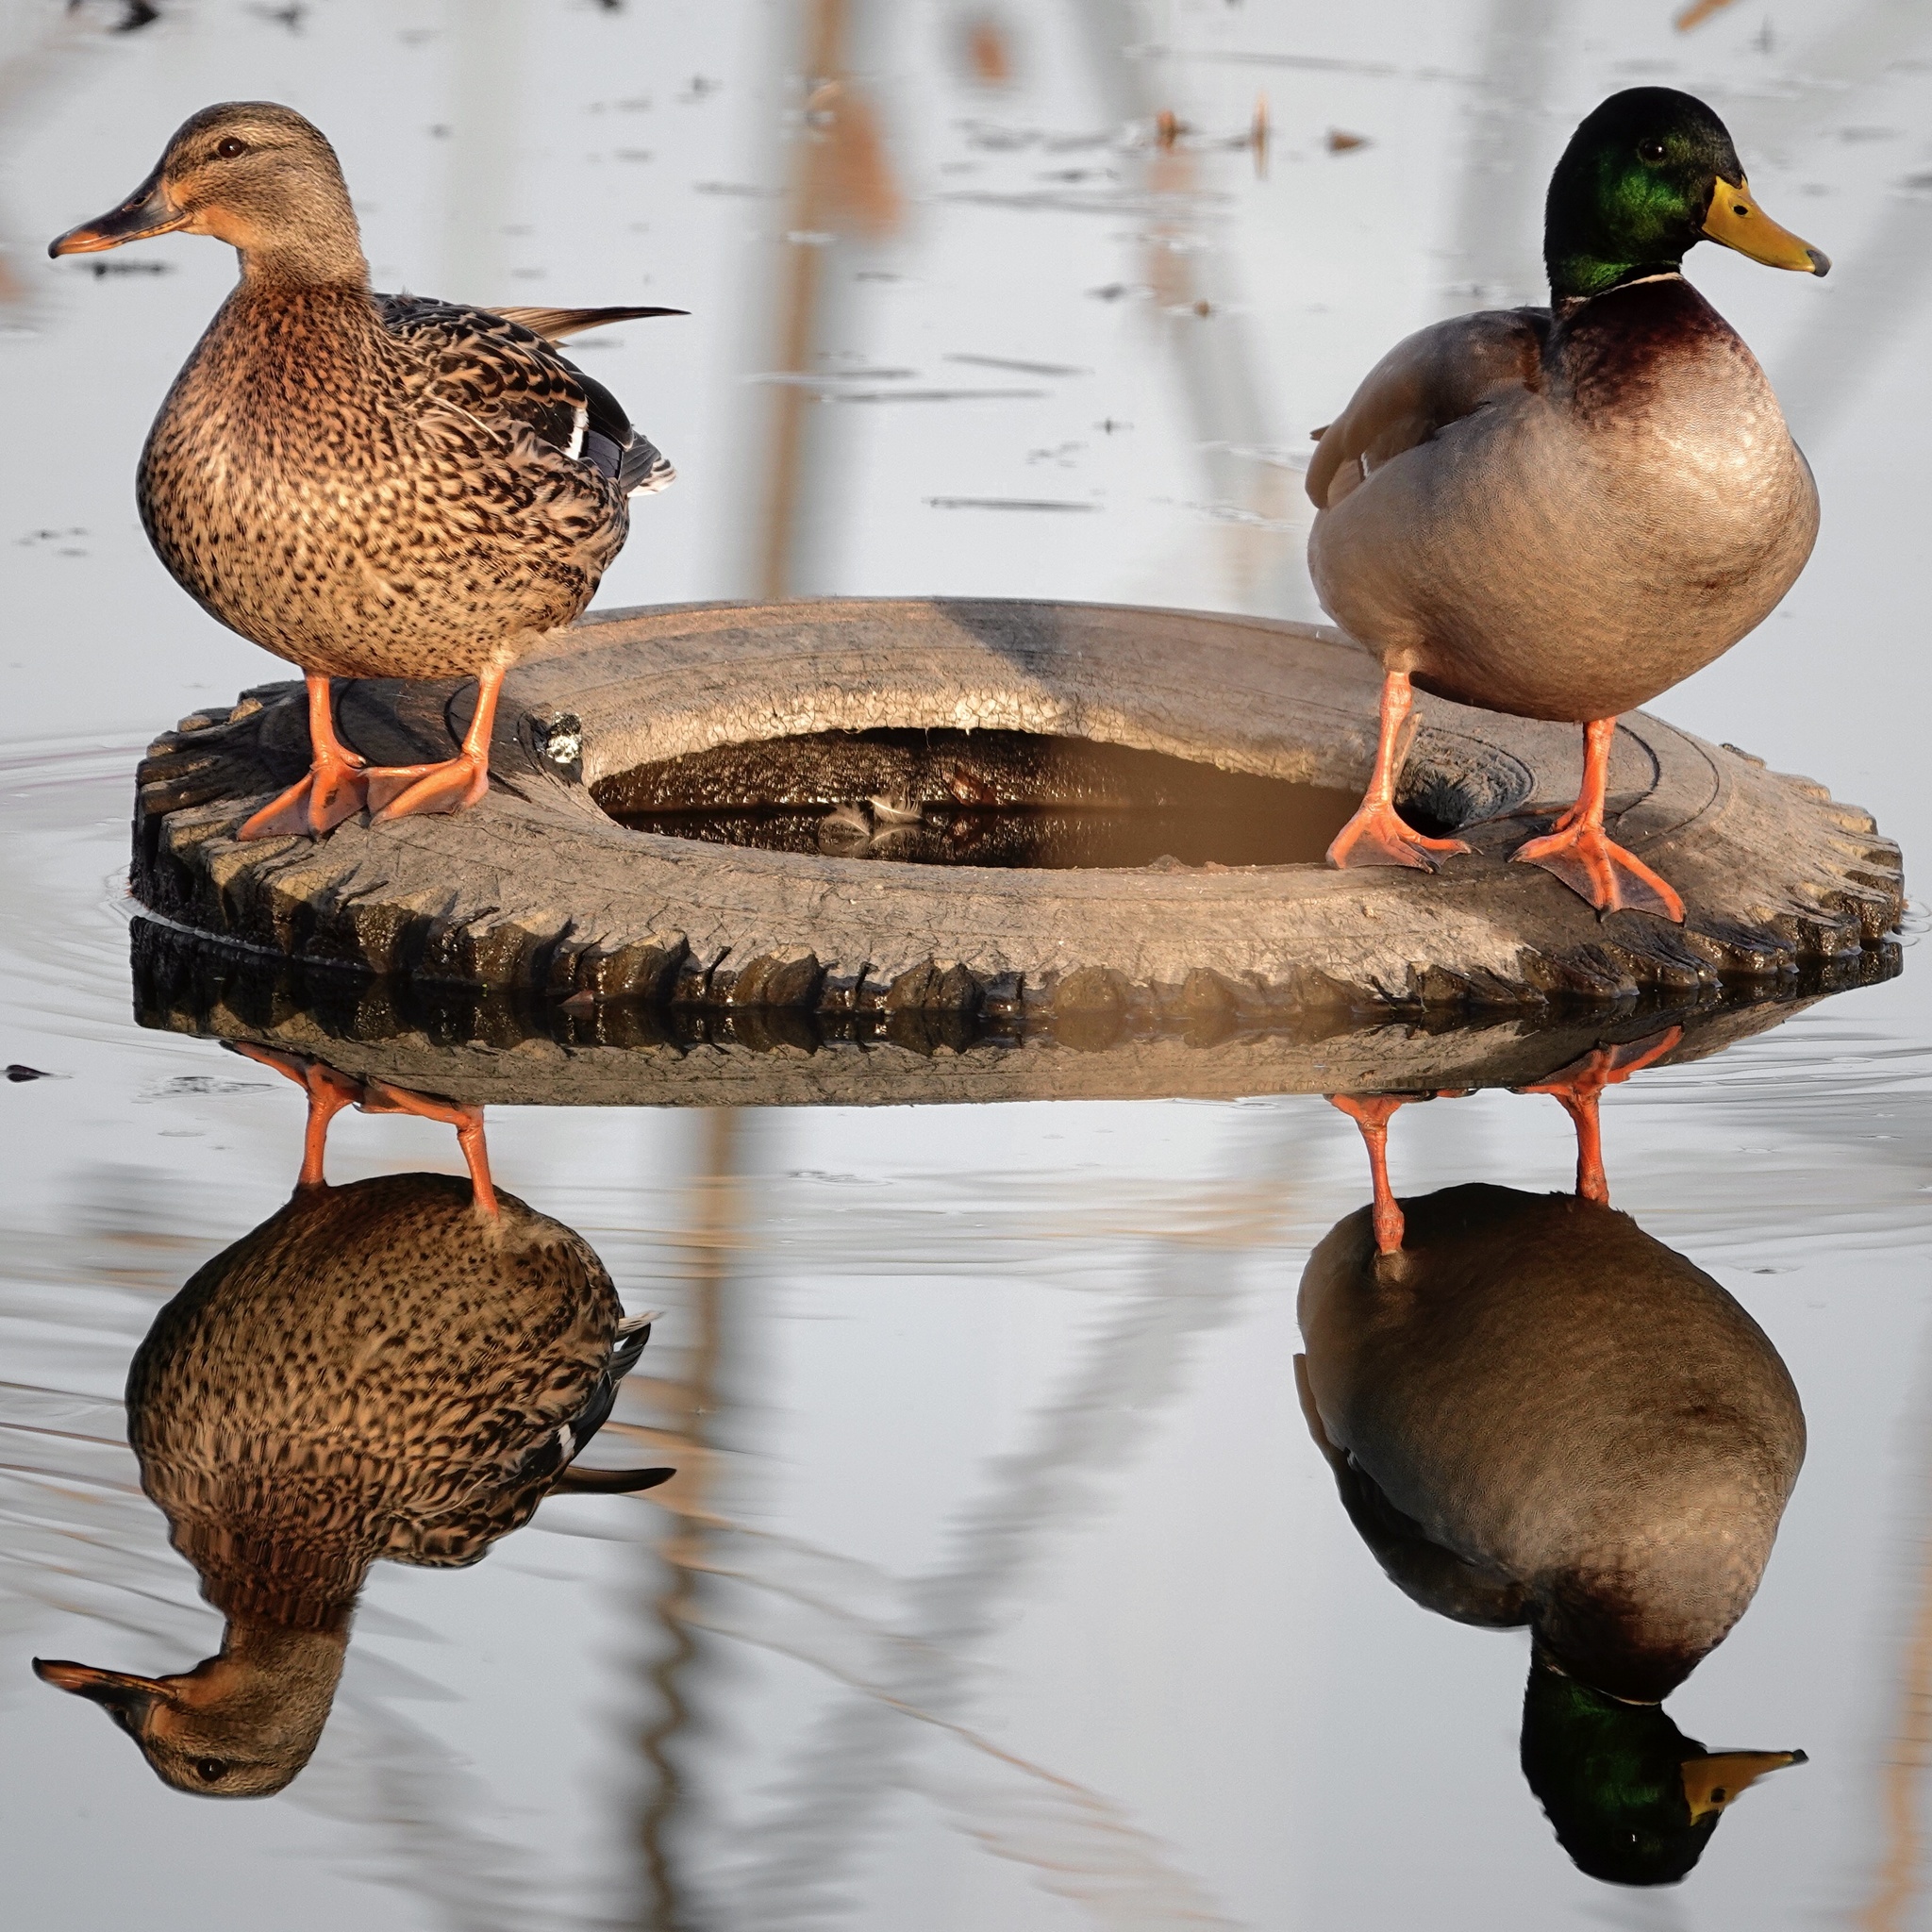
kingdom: Animalia
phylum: Chordata
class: Aves
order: Anseriformes
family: Anatidae
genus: Anas
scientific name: Anas platyrhynchos
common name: Mallard
